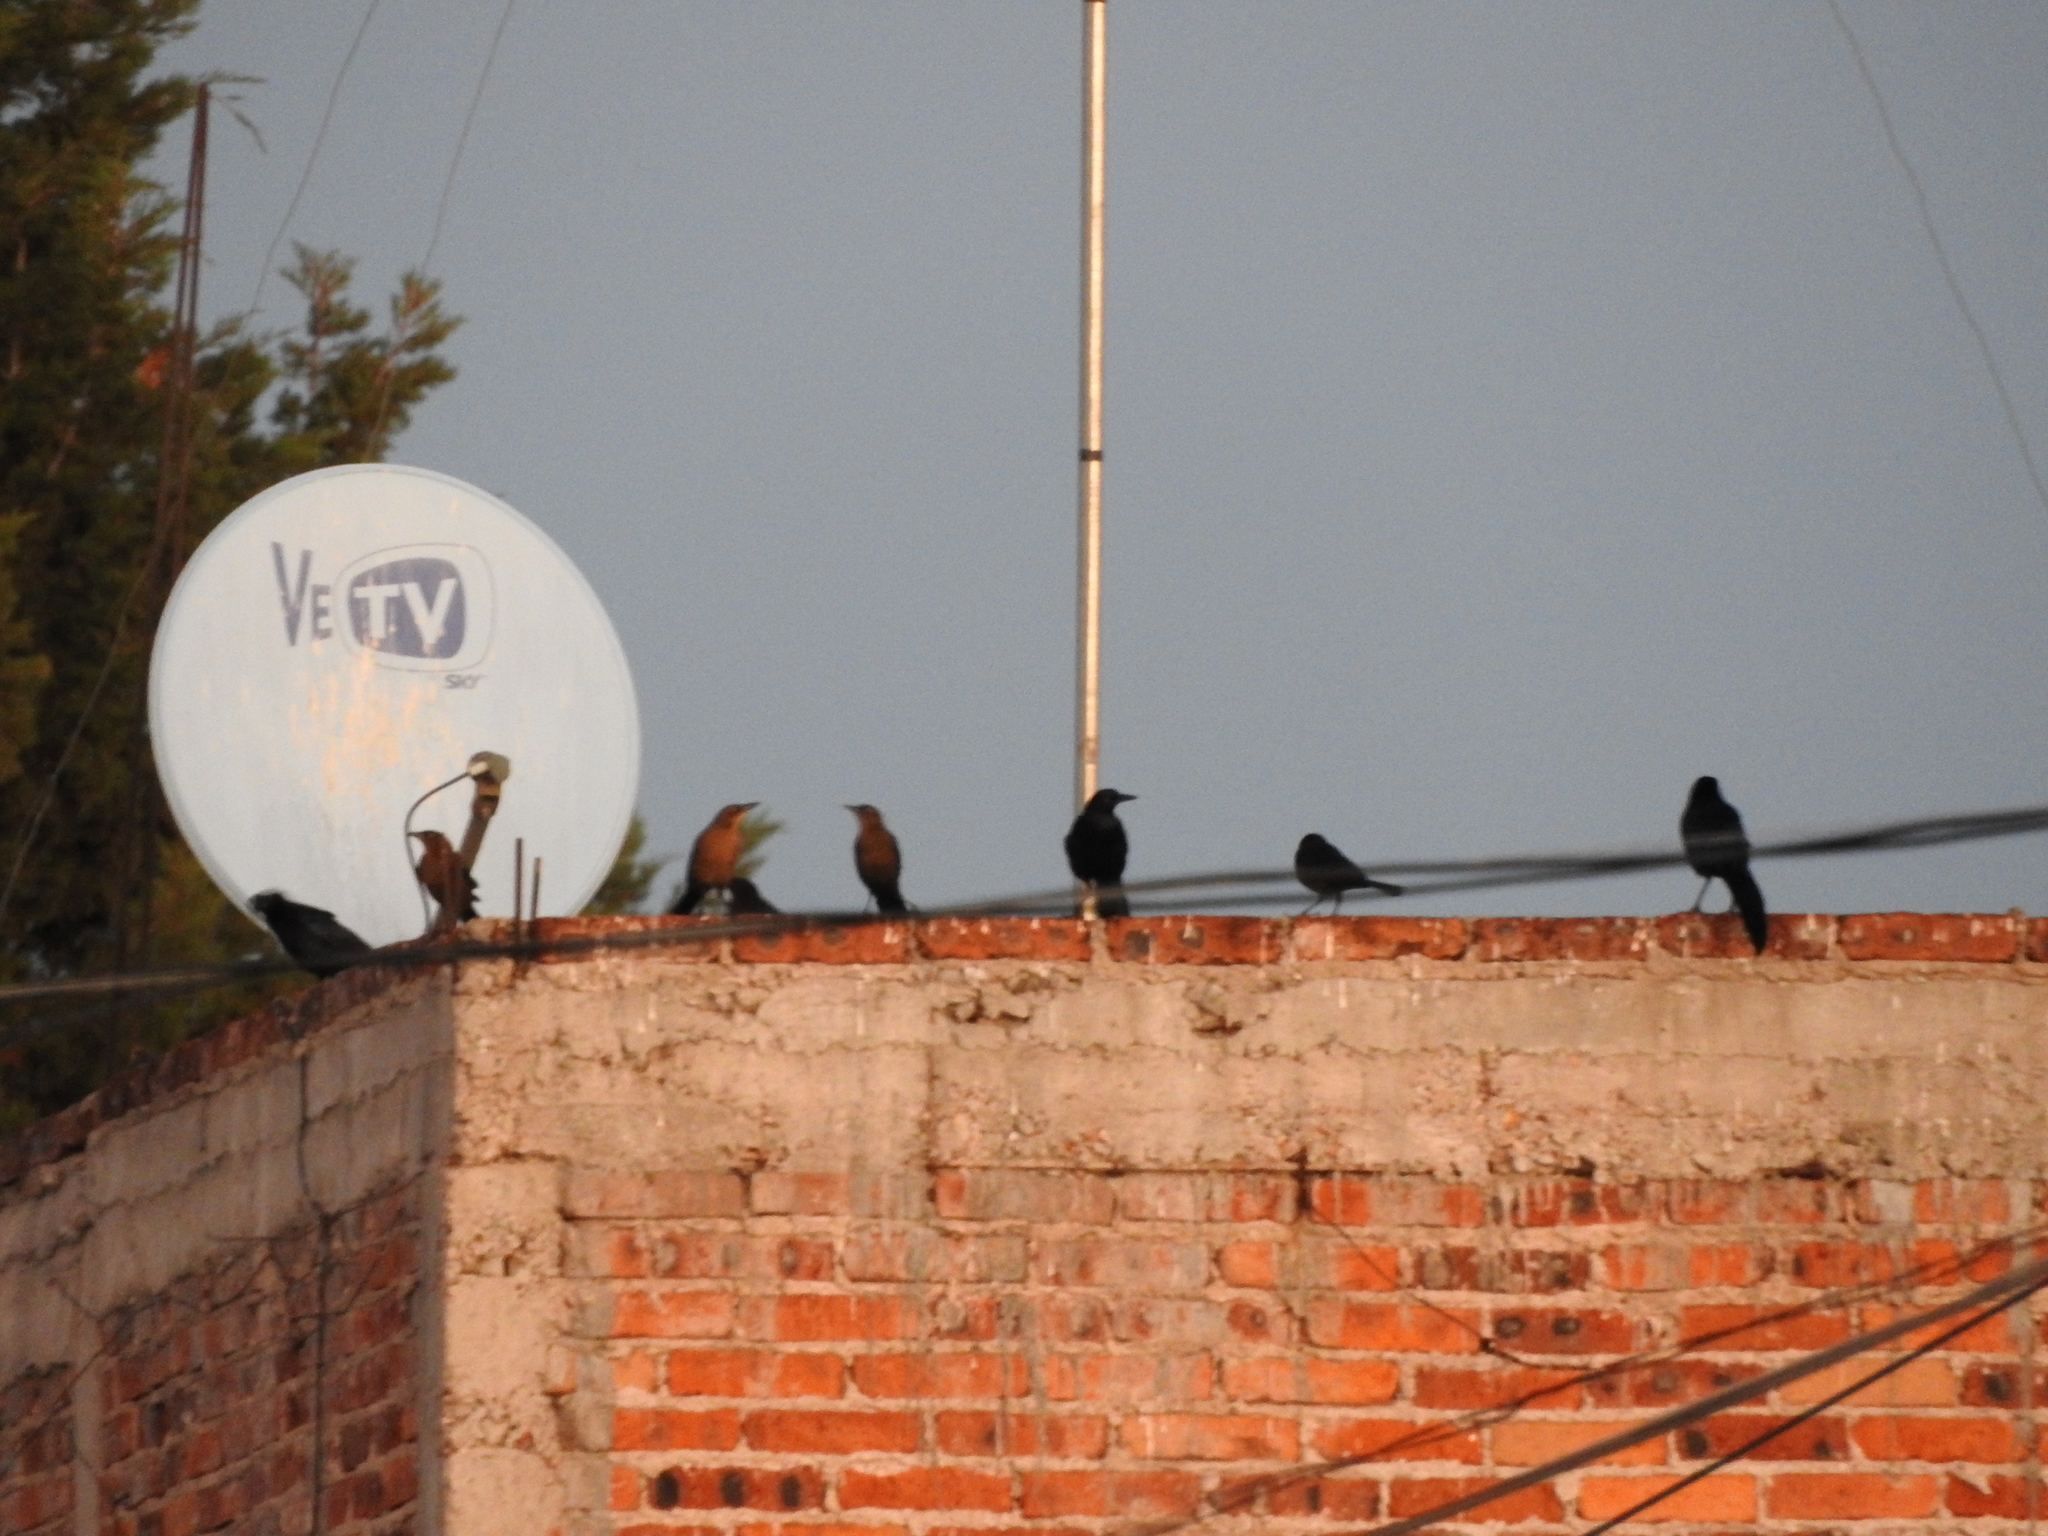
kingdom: Animalia
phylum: Chordata
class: Aves
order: Passeriformes
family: Icteridae
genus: Quiscalus
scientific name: Quiscalus mexicanus
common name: Great-tailed grackle
